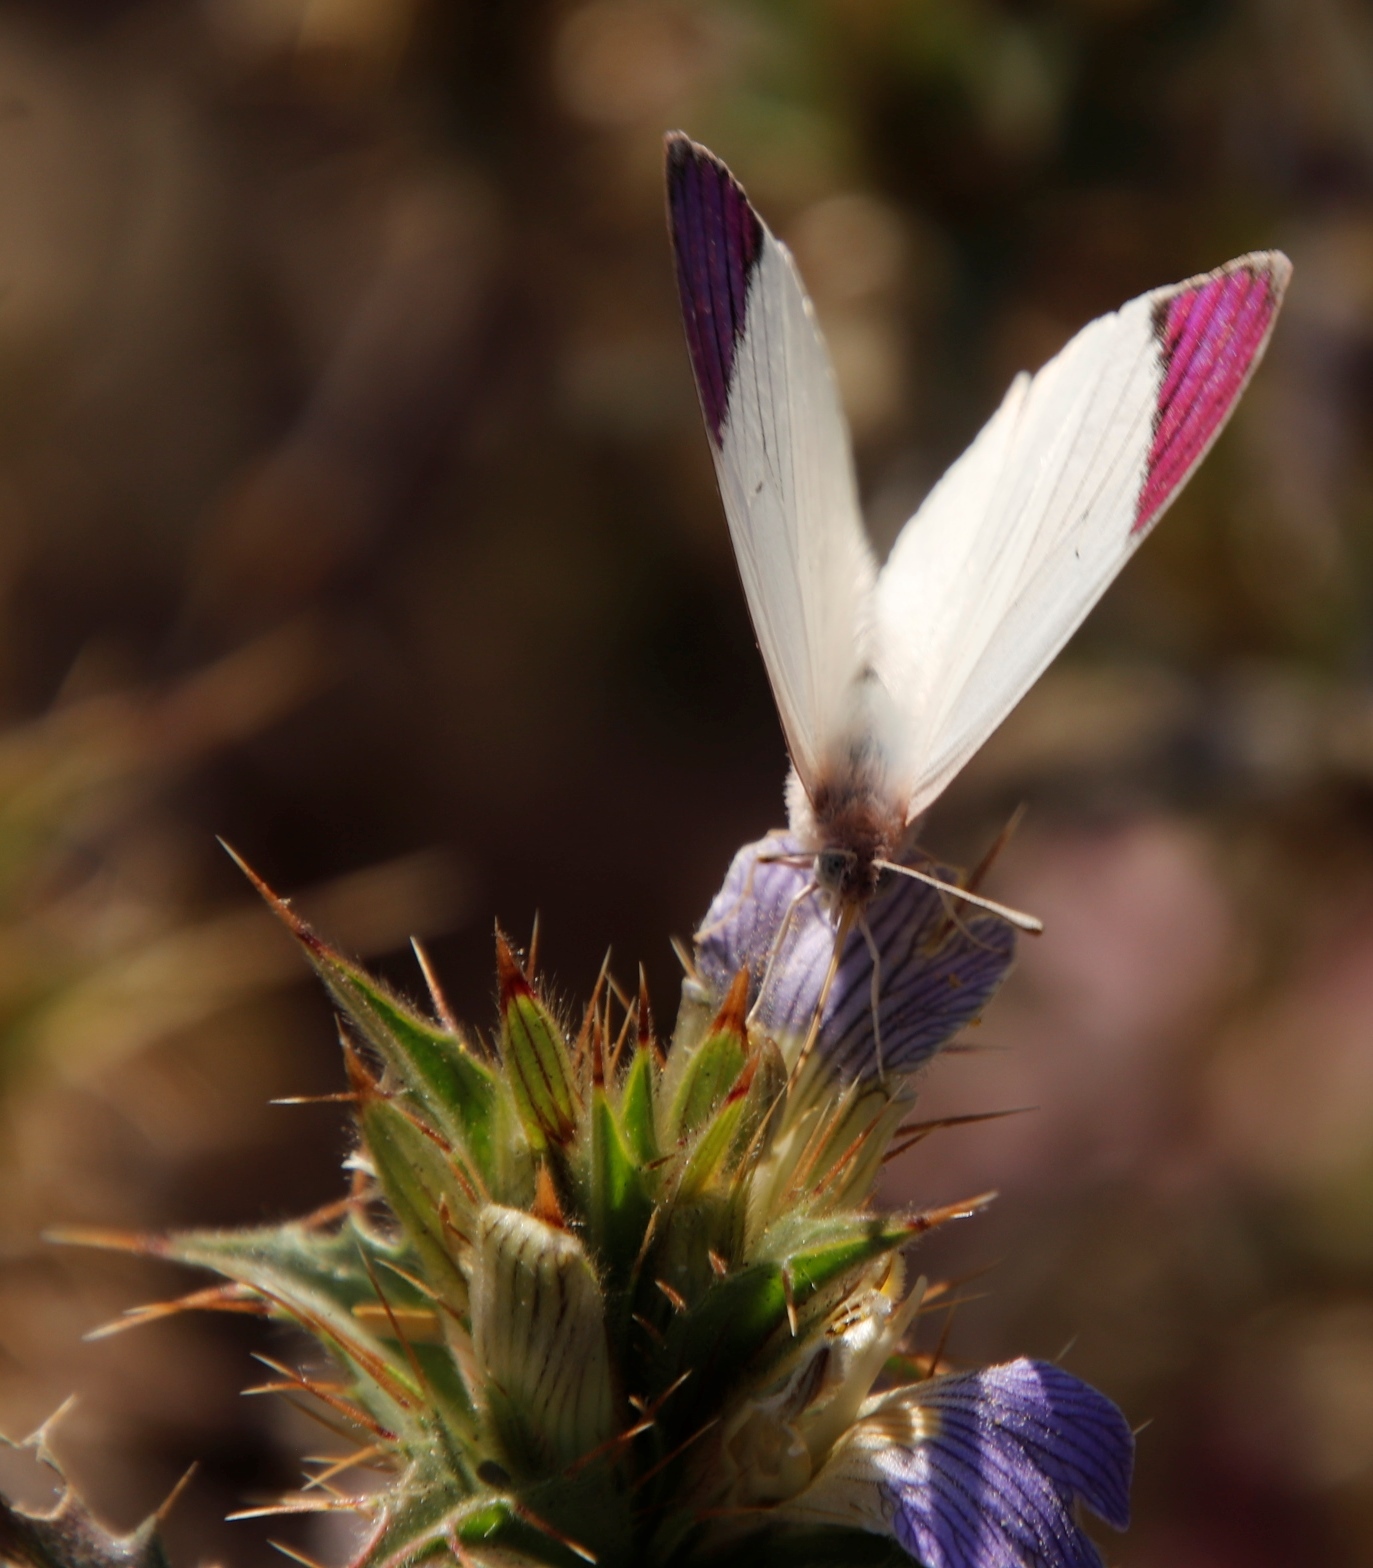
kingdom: Animalia
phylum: Arthropoda
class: Insecta
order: Lepidoptera
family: Pieridae
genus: Colotis
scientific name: Colotis regina
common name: Queen purple tip
